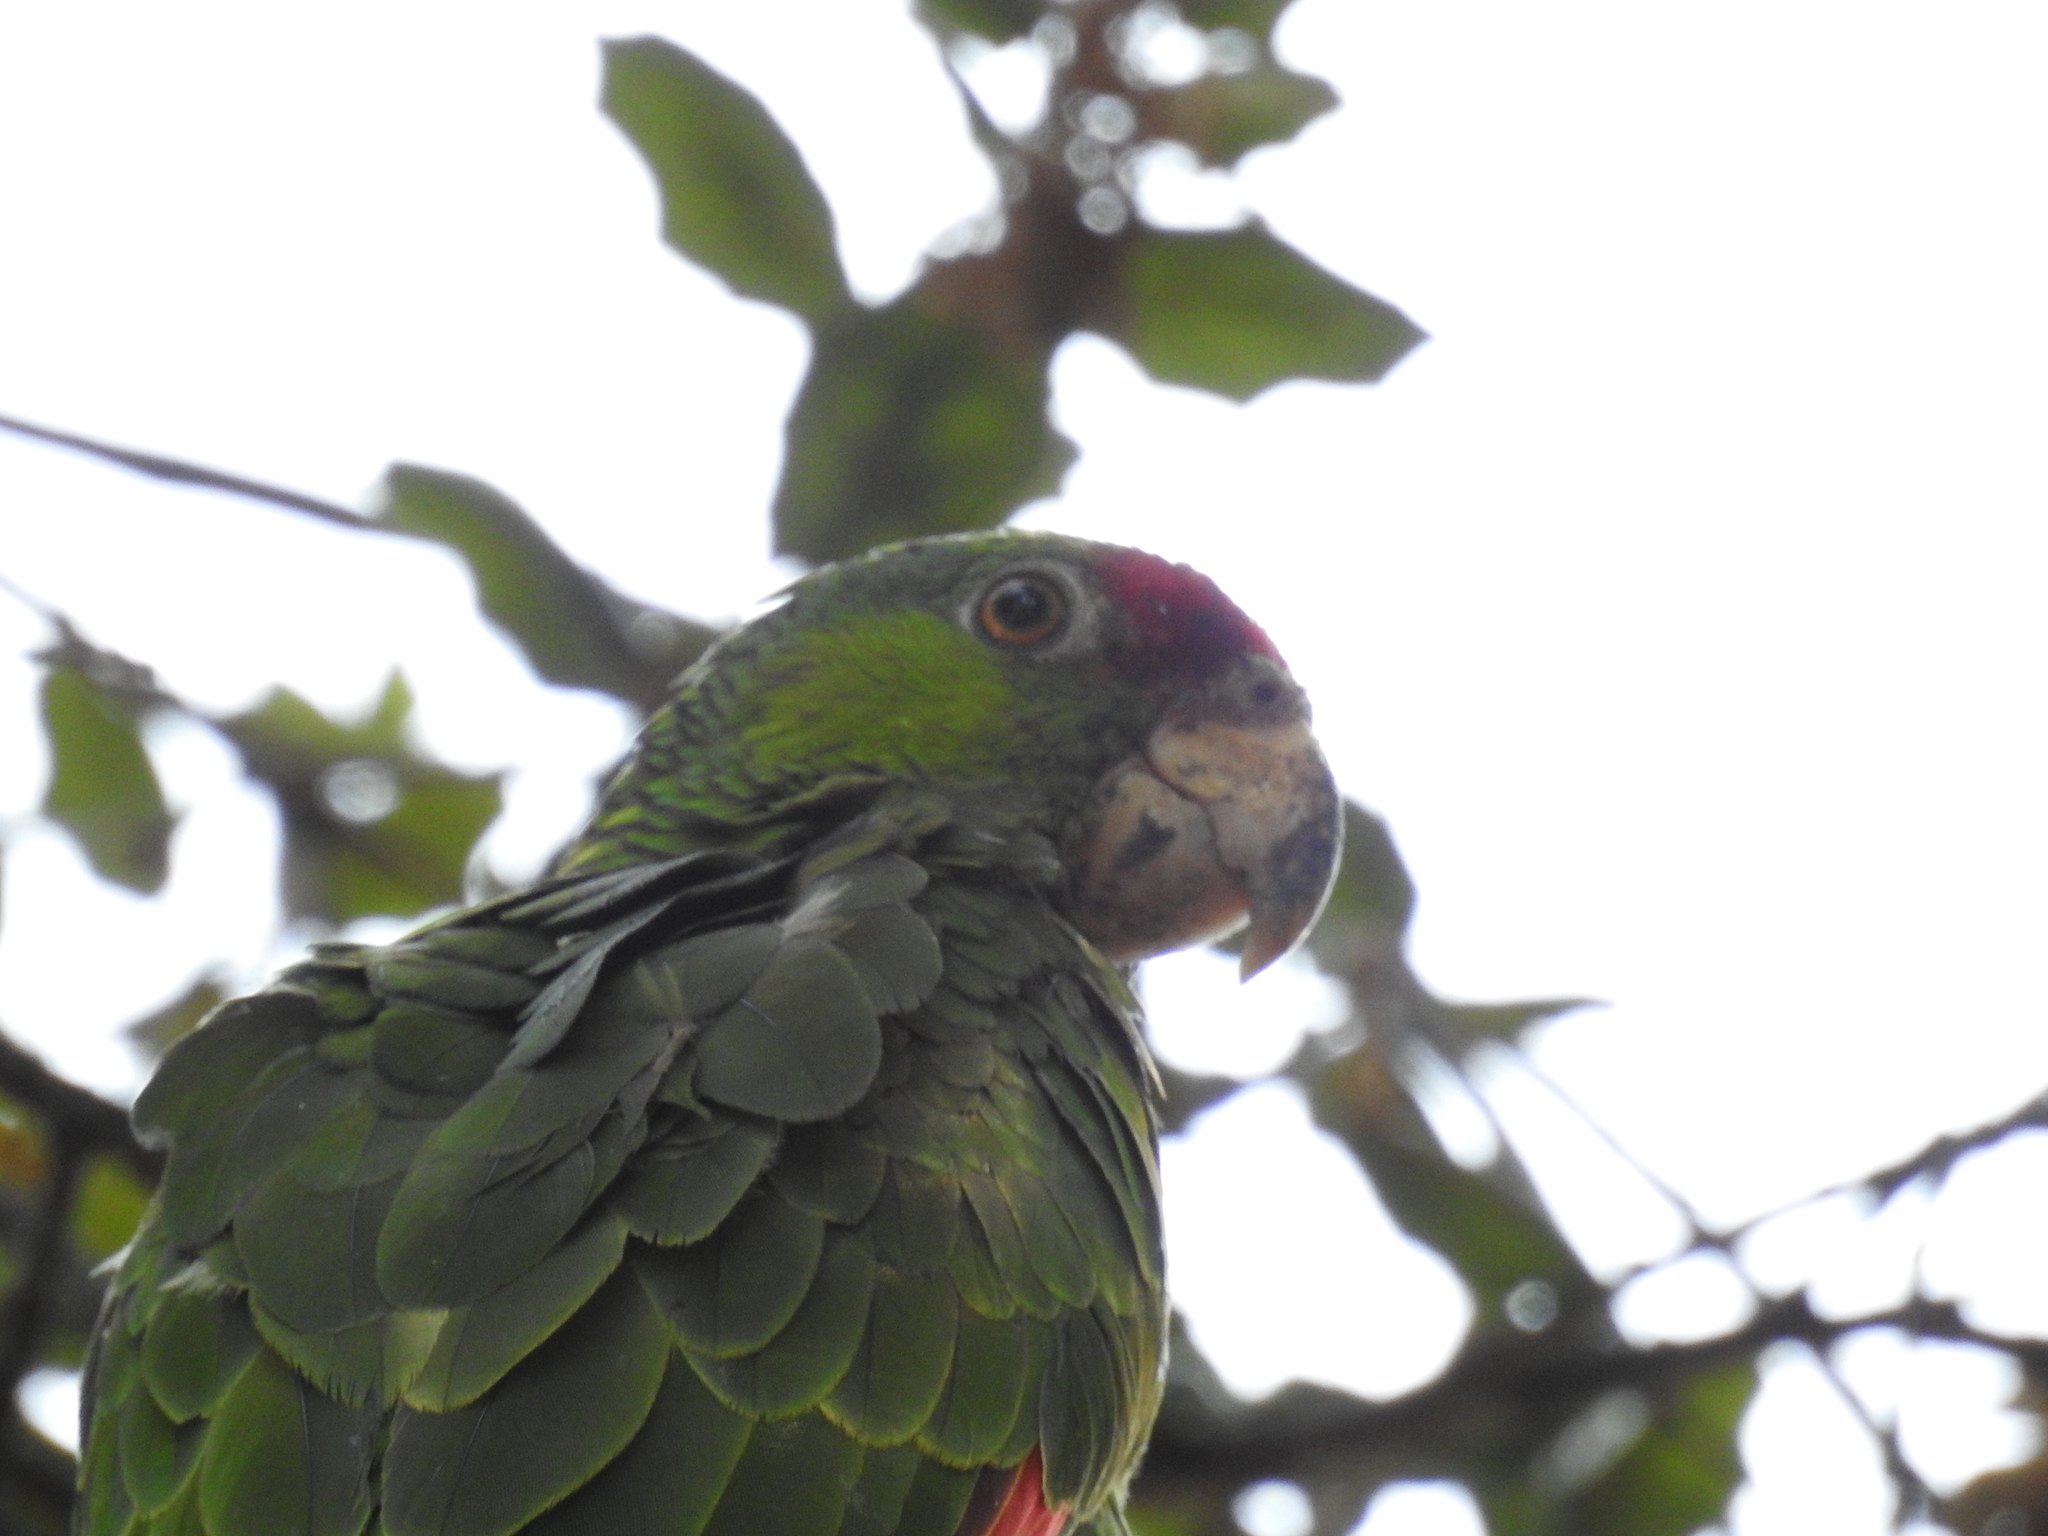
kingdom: Animalia
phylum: Chordata
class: Aves
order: Psittaciformes
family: Psittacidae
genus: Amazona
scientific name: Amazona viridigenalis
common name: Red-crowned amazon
